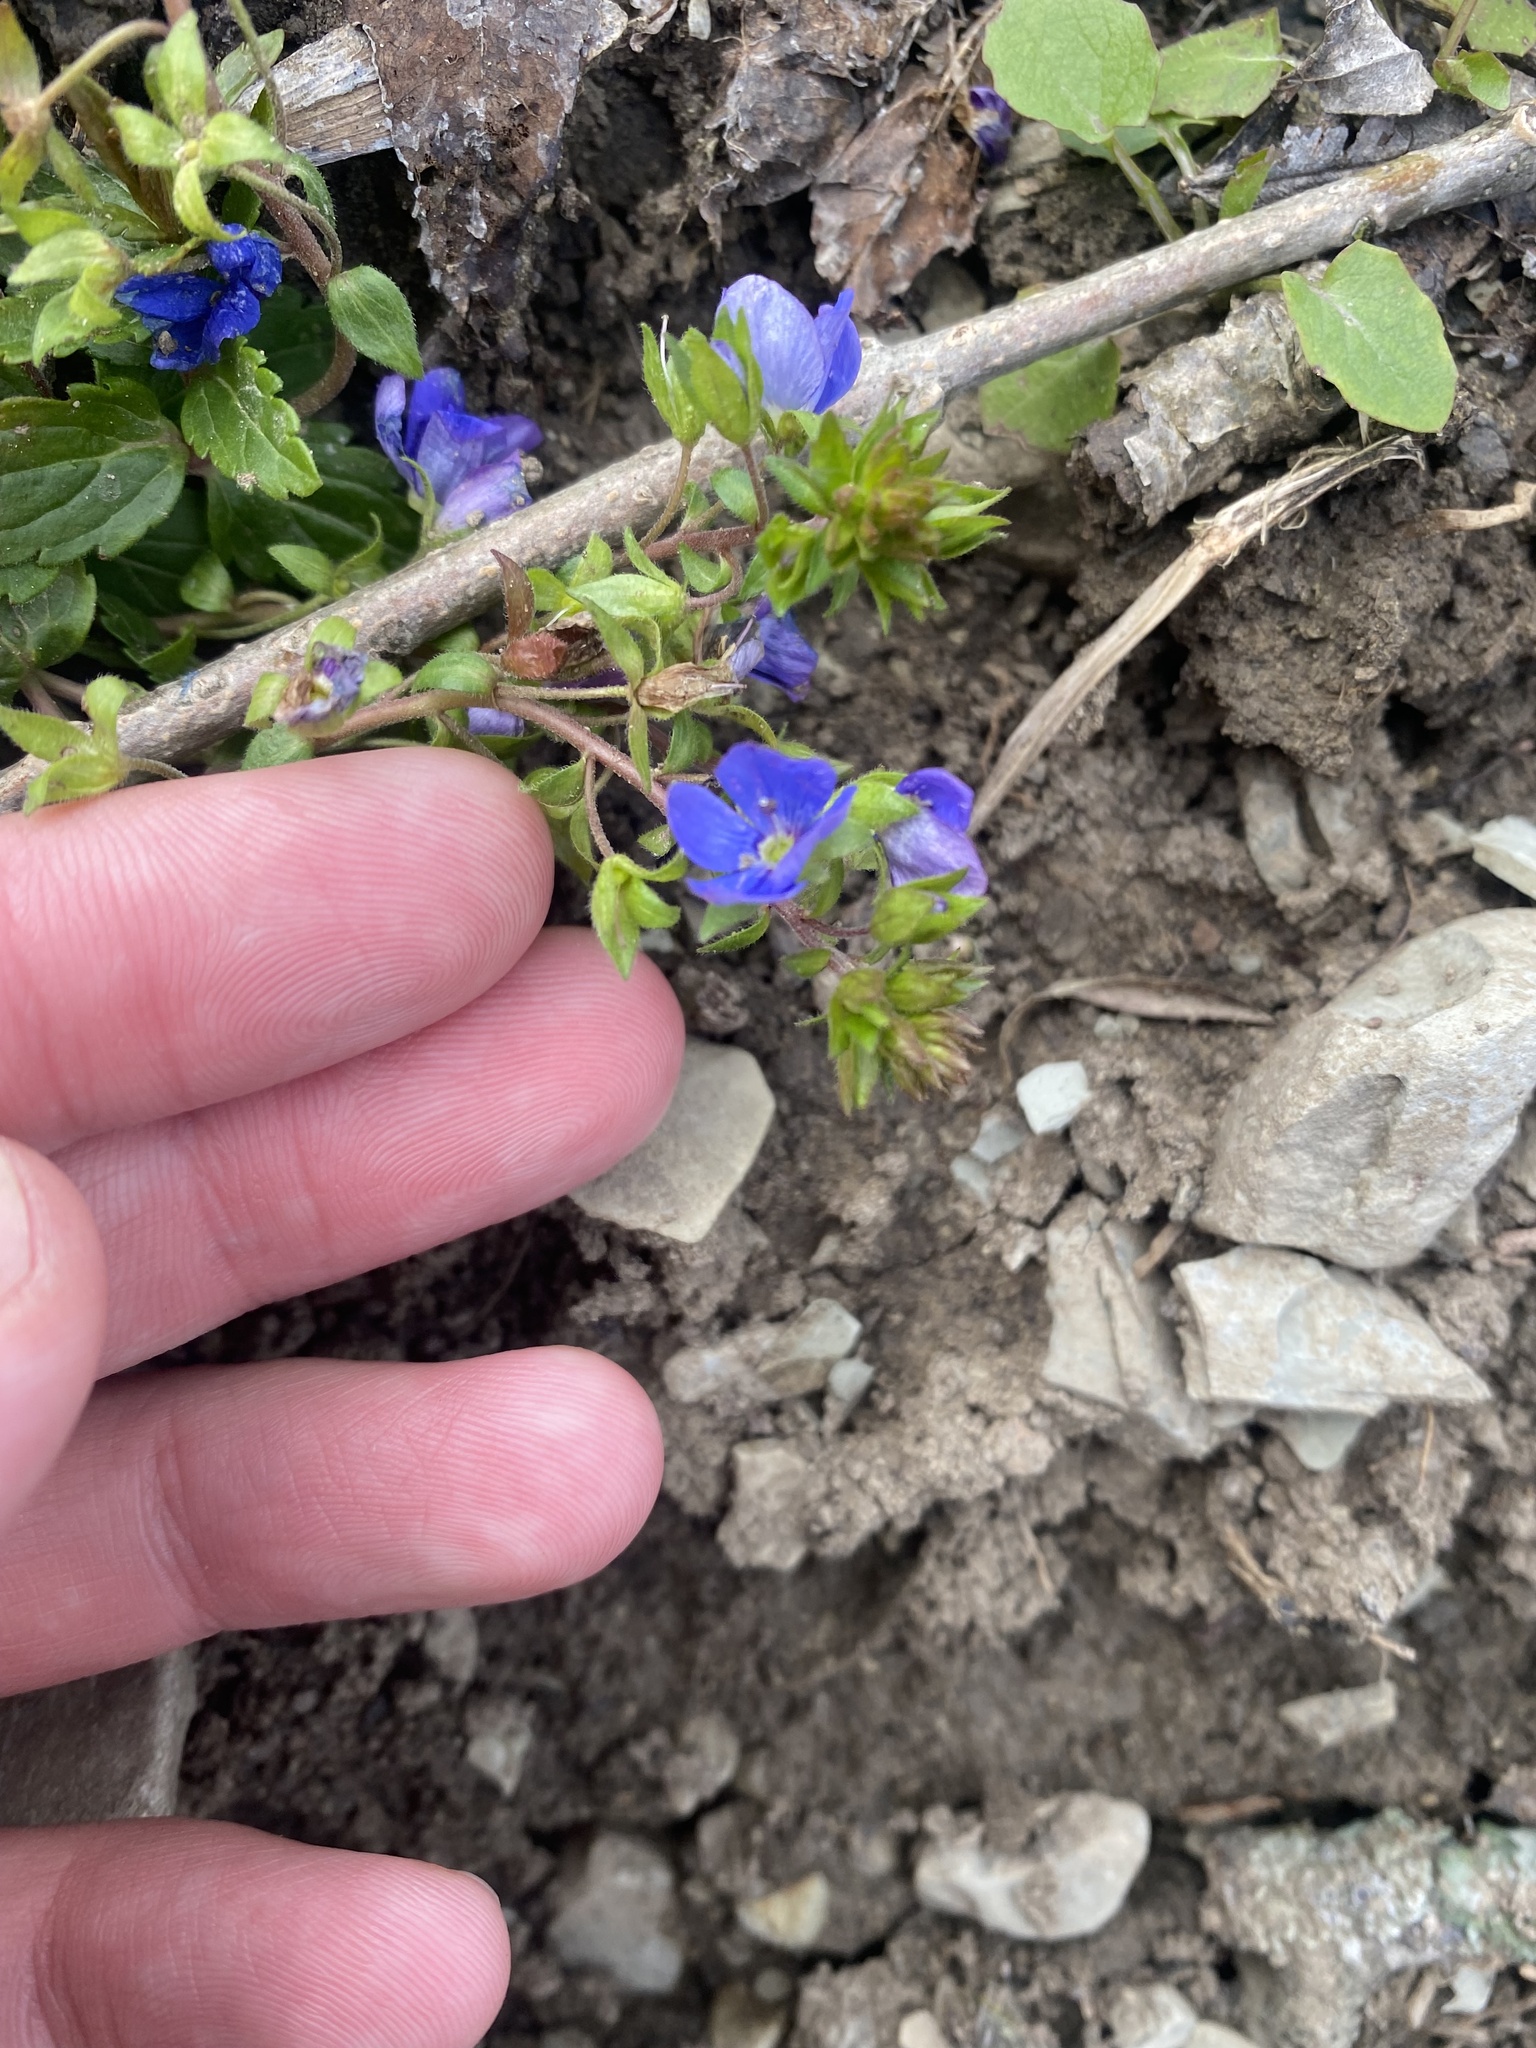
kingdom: Plantae
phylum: Tracheophyta
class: Magnoliopsida
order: Lamiales
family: Plantaginaceae
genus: Veronica
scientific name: Veronica
